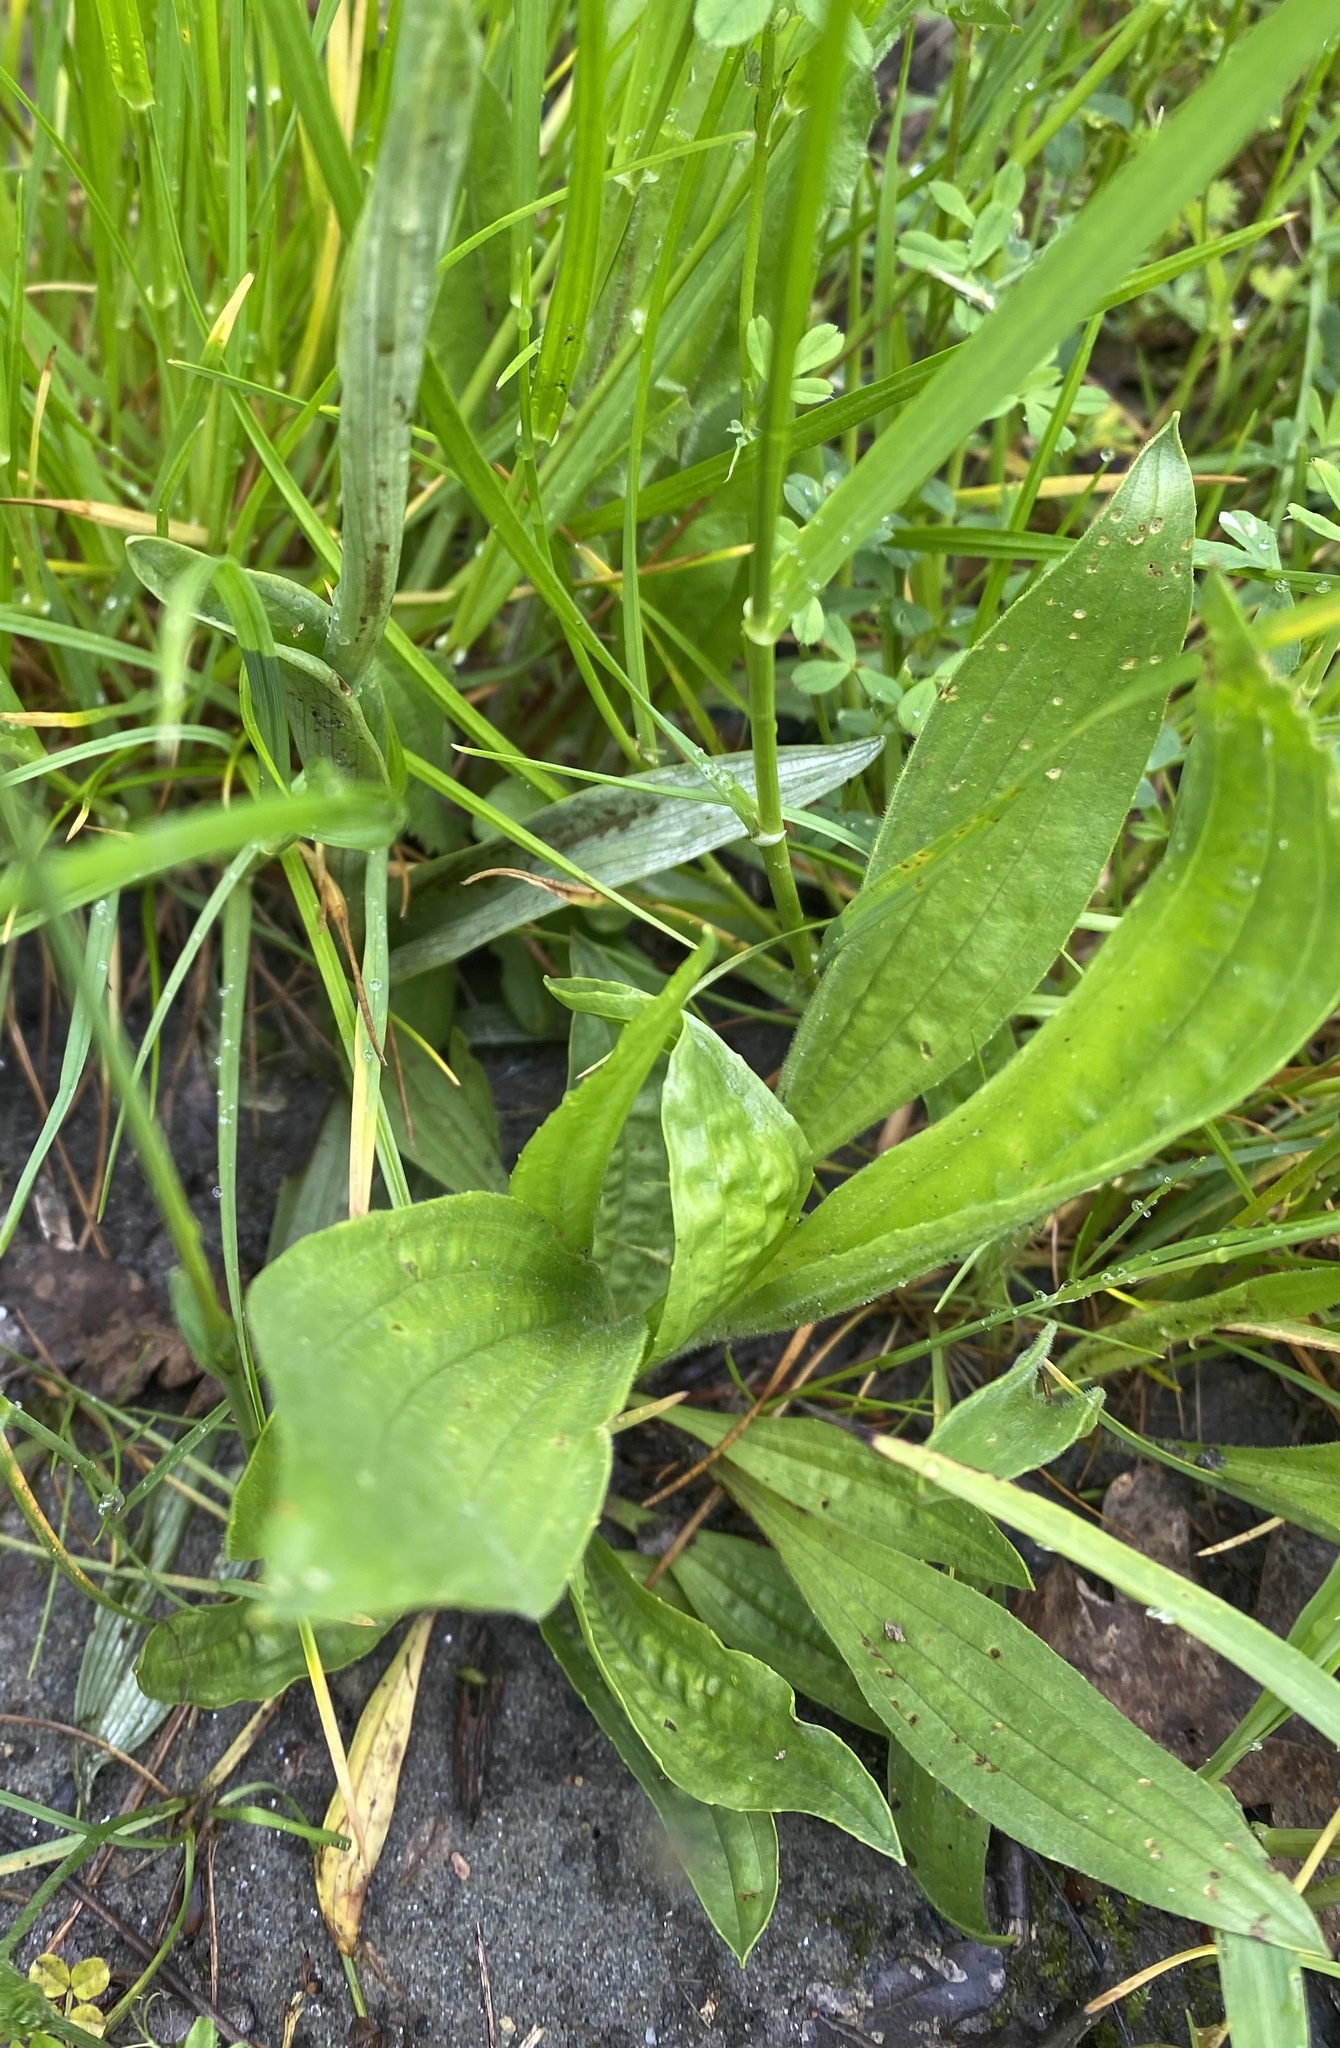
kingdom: Plantae
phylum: Tracheophyta
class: Magnoliopsida
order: Lamiales
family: Plantaginaceae
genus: Plantago
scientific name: Plantago lanceolata
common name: Ribwort plantain
